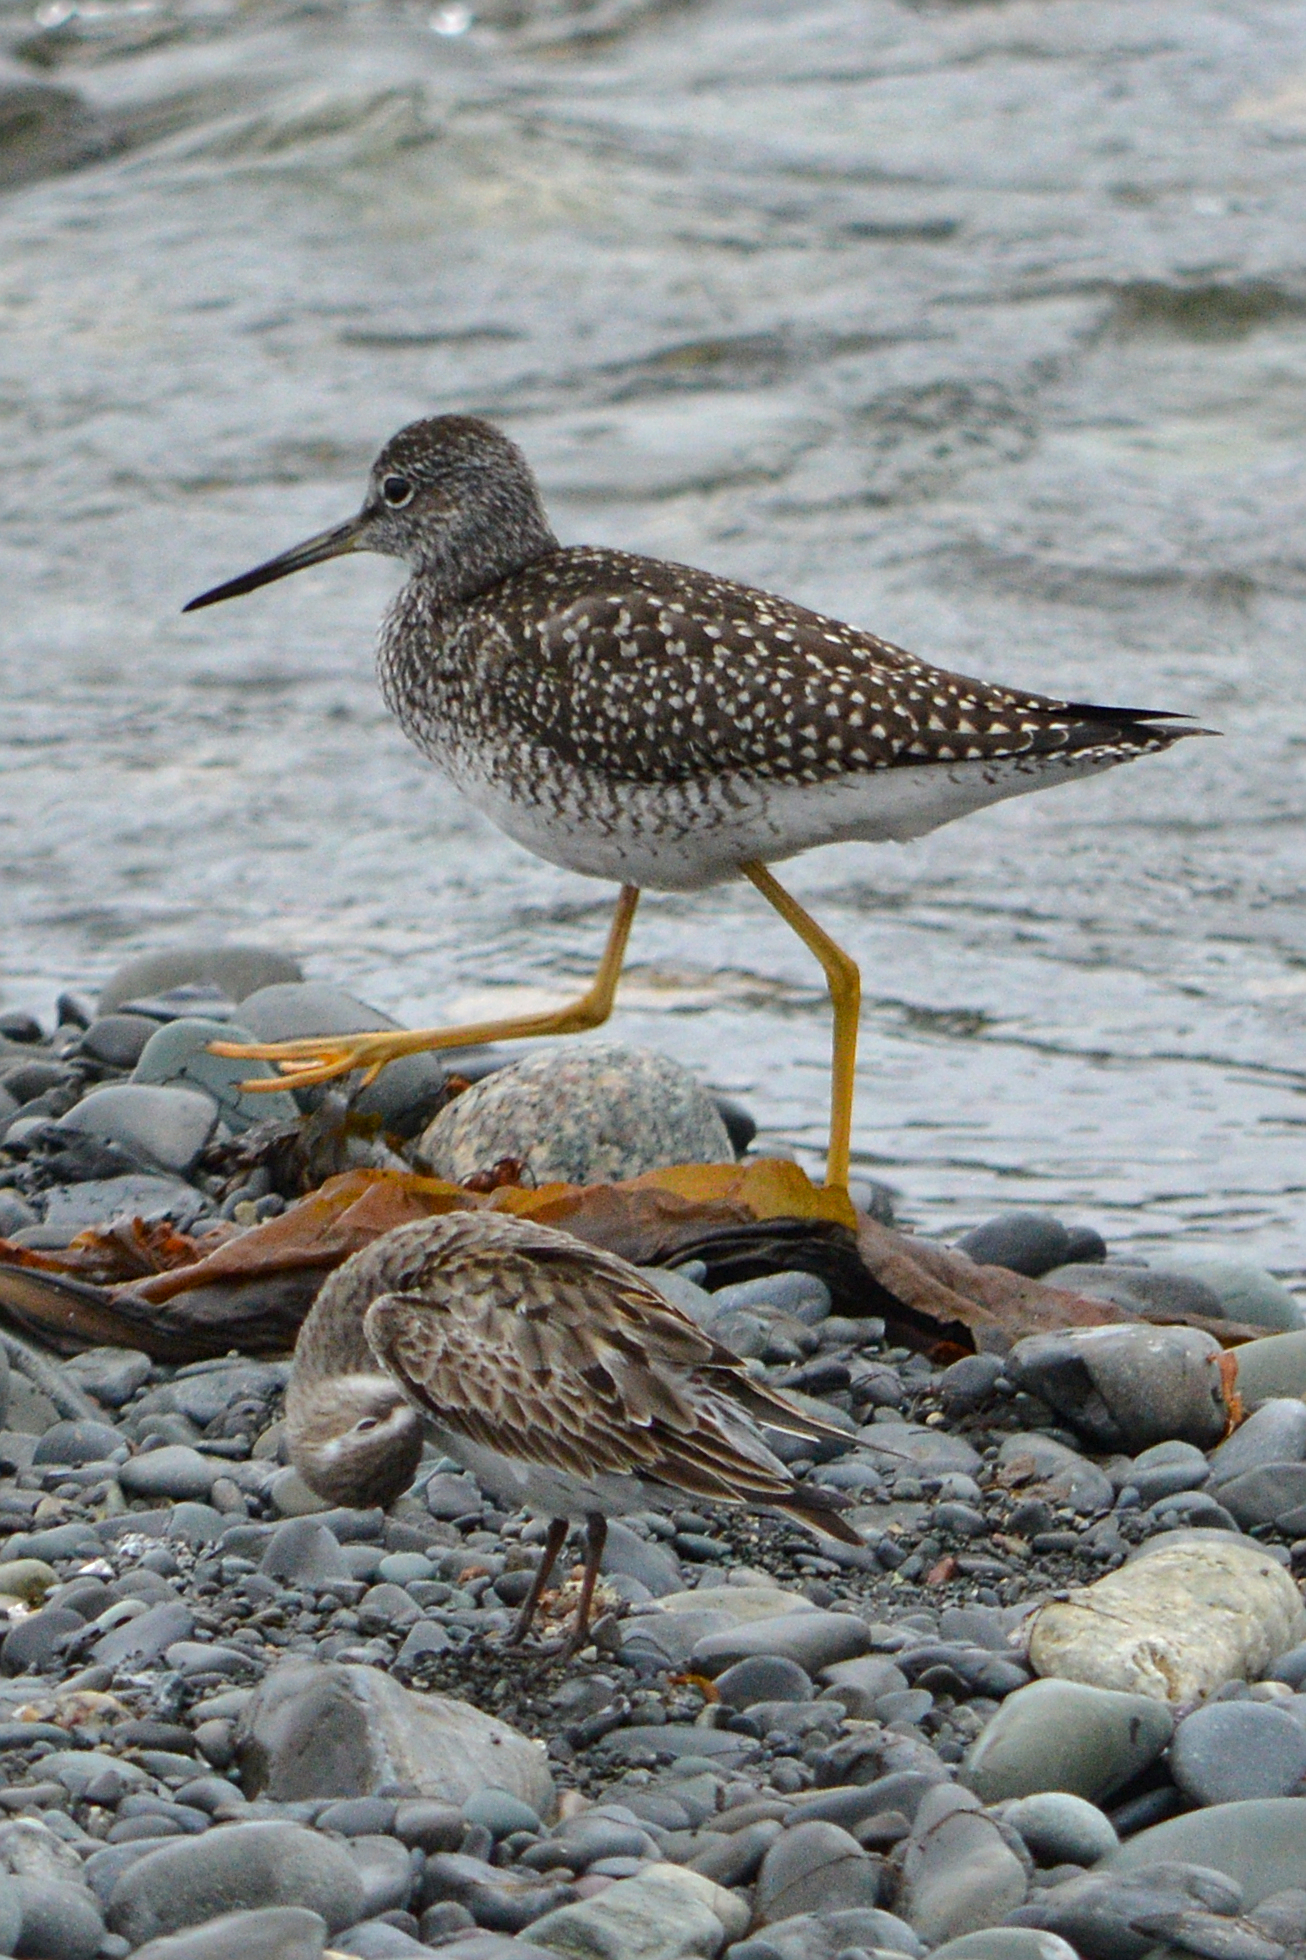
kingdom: Animalia
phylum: Chordata
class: Aves
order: Charadriiformes
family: Scolopacidae
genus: Tringa
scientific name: Tringa melanoleuca
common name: Greater yellowlegs
